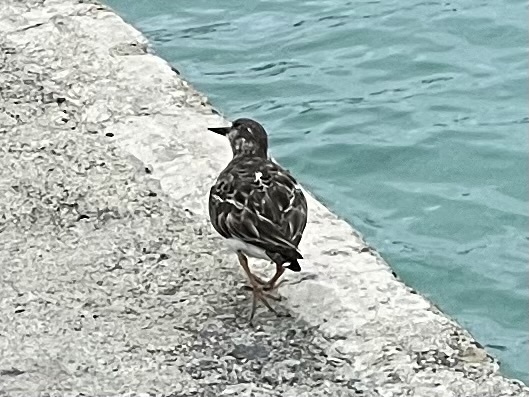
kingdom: Animalia
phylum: Chordata
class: Aves
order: Charadriiformes
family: Scolopacidae
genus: Arenaria
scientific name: Arenaria interpres
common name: Ruddy turnstone
